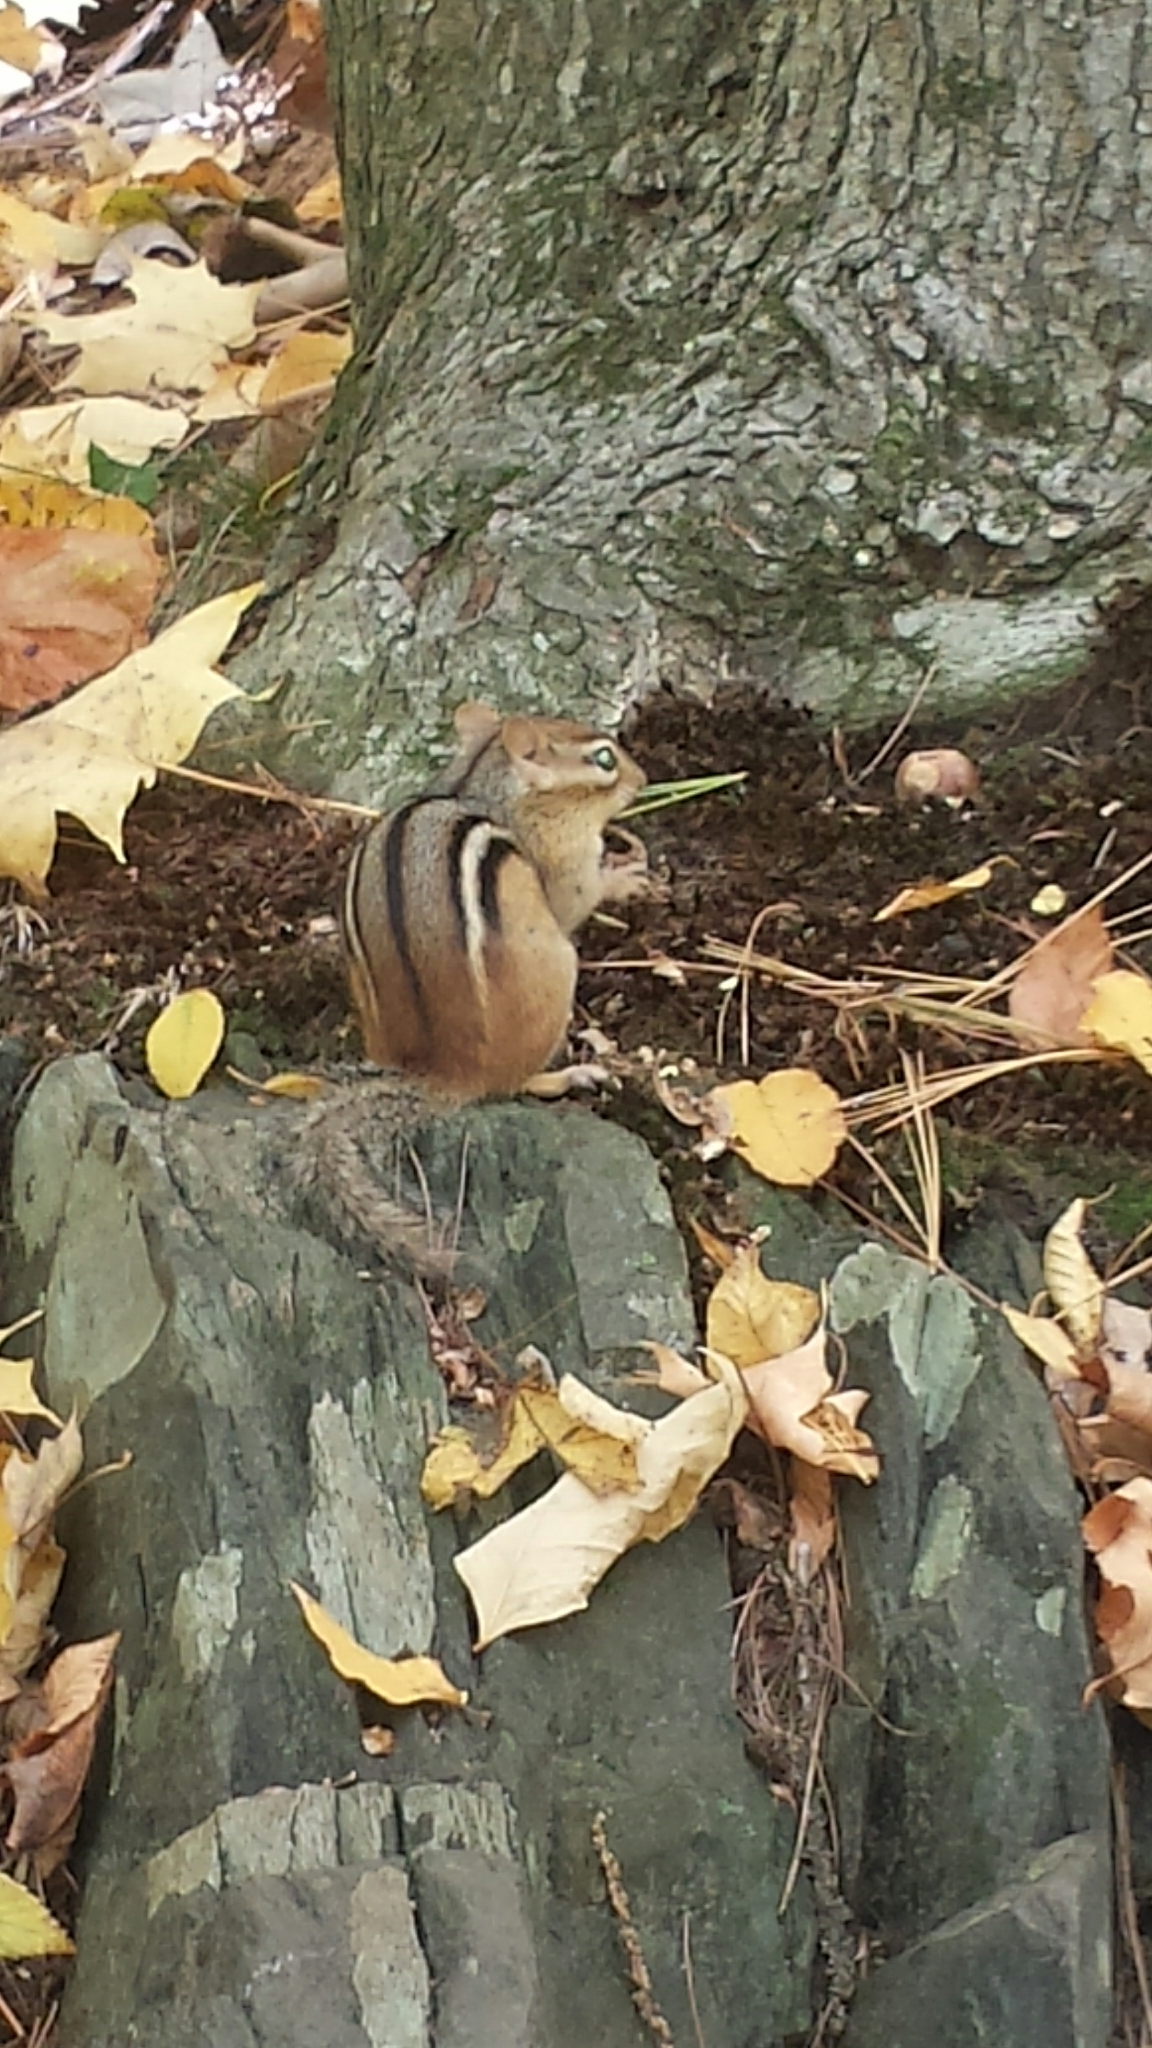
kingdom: Animalia
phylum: Chordata
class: Mammalia
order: Rodentia
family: Sciuridae
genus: Tamias
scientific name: Tamias striatus
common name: Eastern chipmunk
